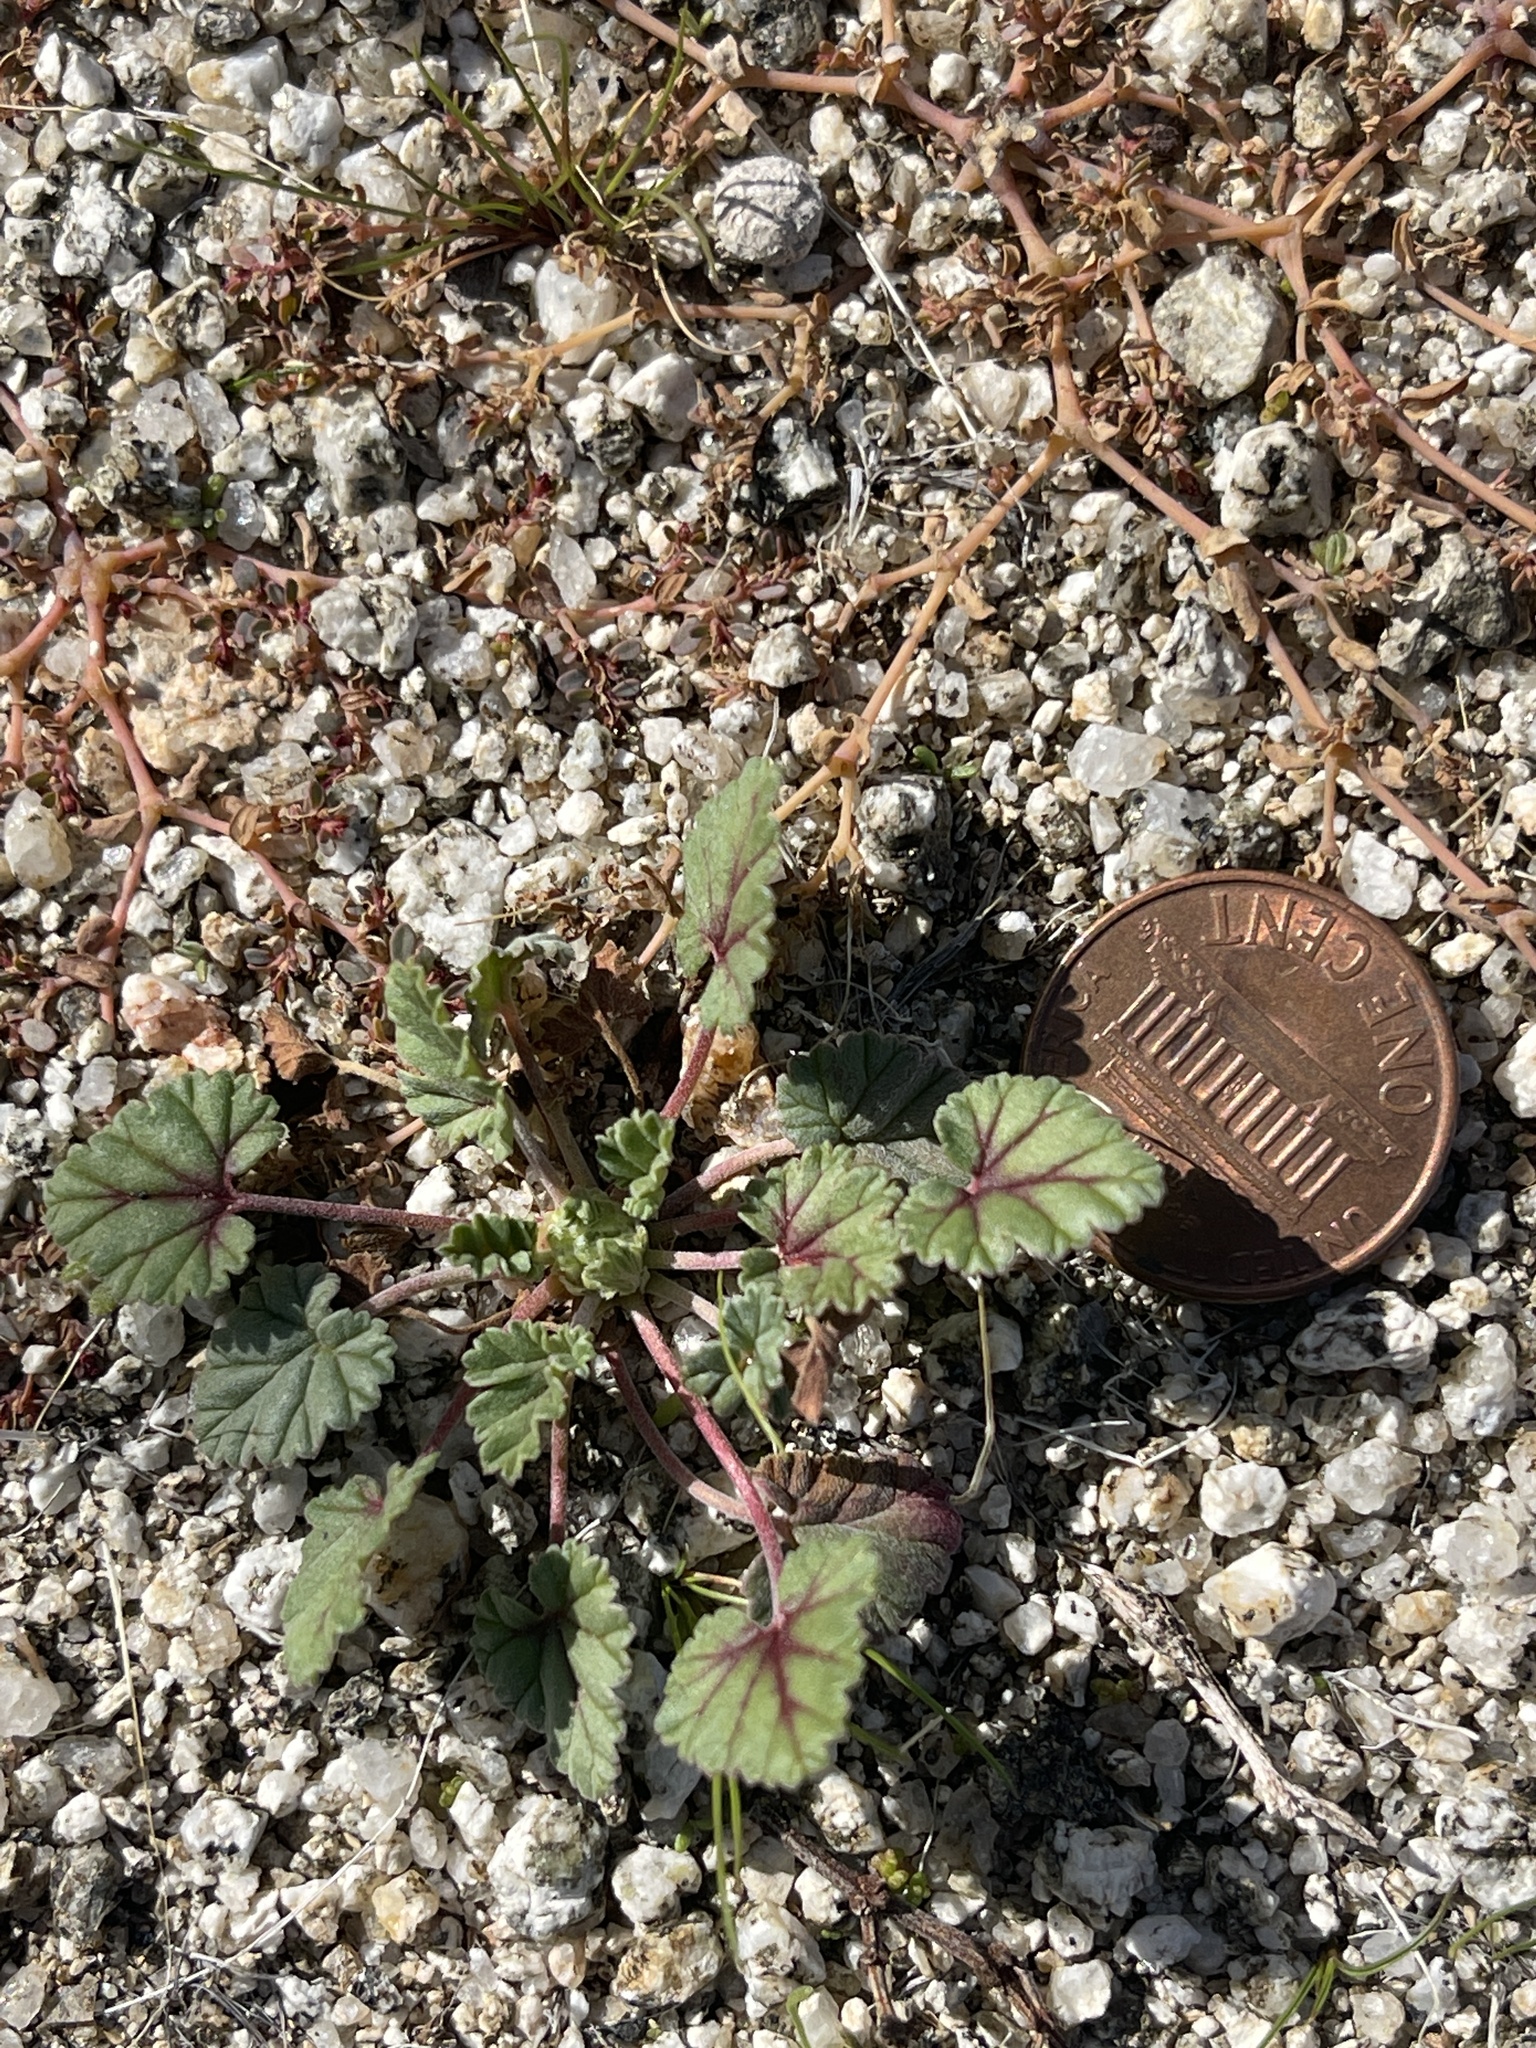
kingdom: Plantae
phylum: Tracheophyta
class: Magnoliopsida
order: Geraniales
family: Geraniaceae
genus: Erodium
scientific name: Erodium texanum
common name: Texas stork's-bill
